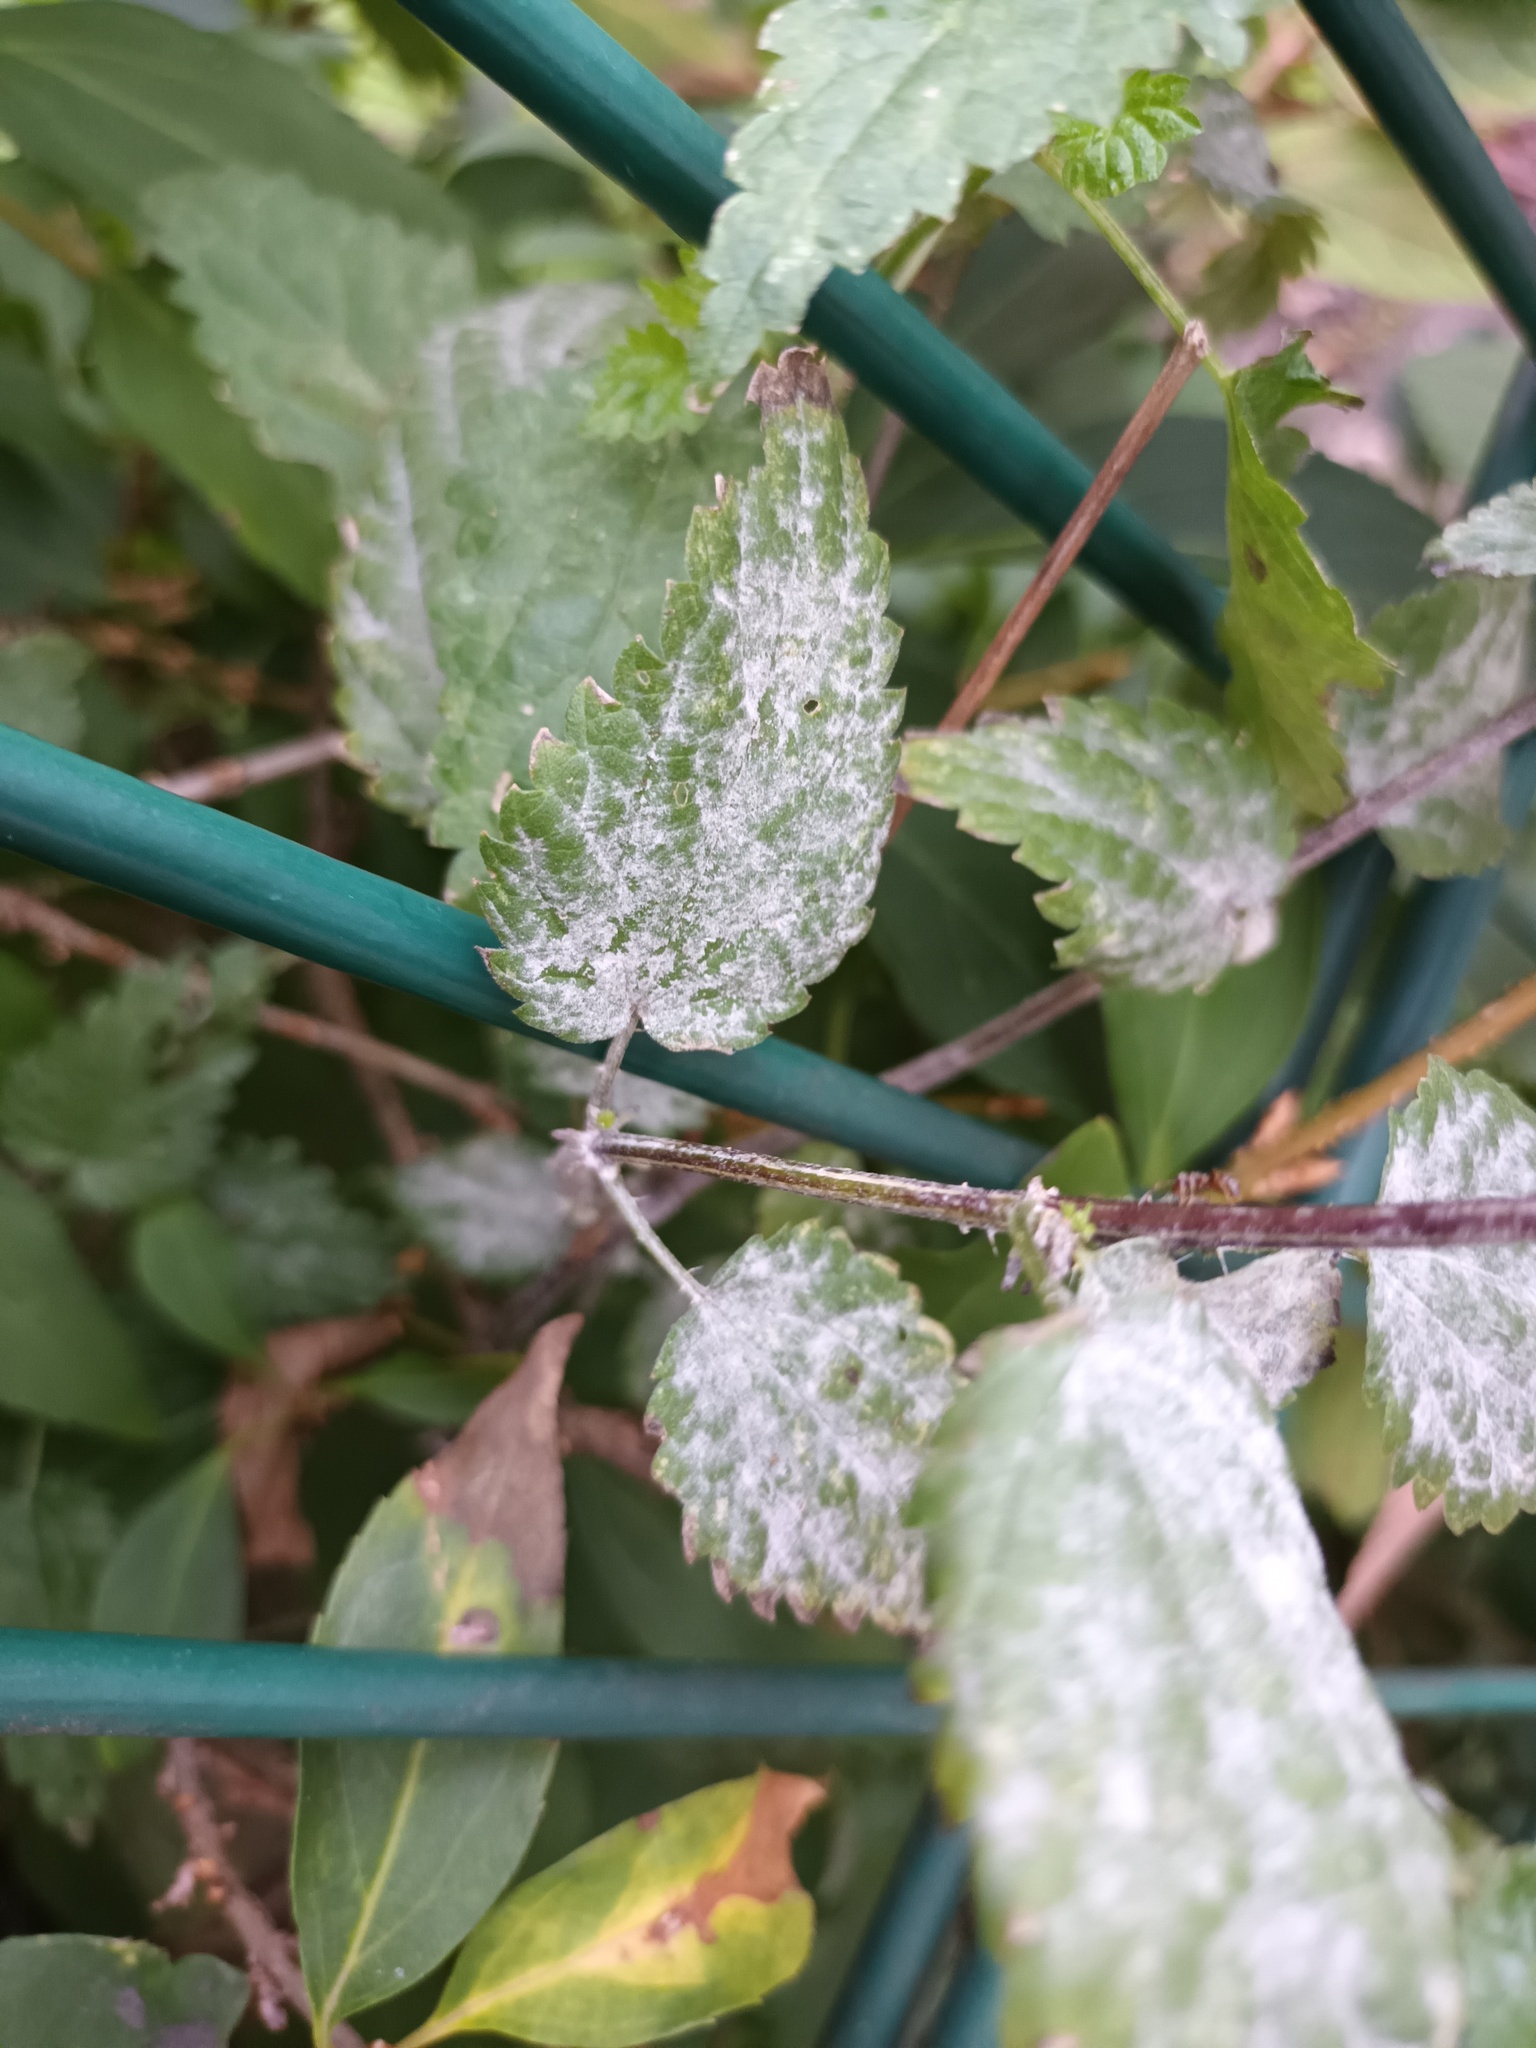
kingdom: Fungi
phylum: Ascomycota
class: Leotiomycetes
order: Helotiales
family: Erysiphaceae
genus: Erysiphe
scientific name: Erysiphe urticae
